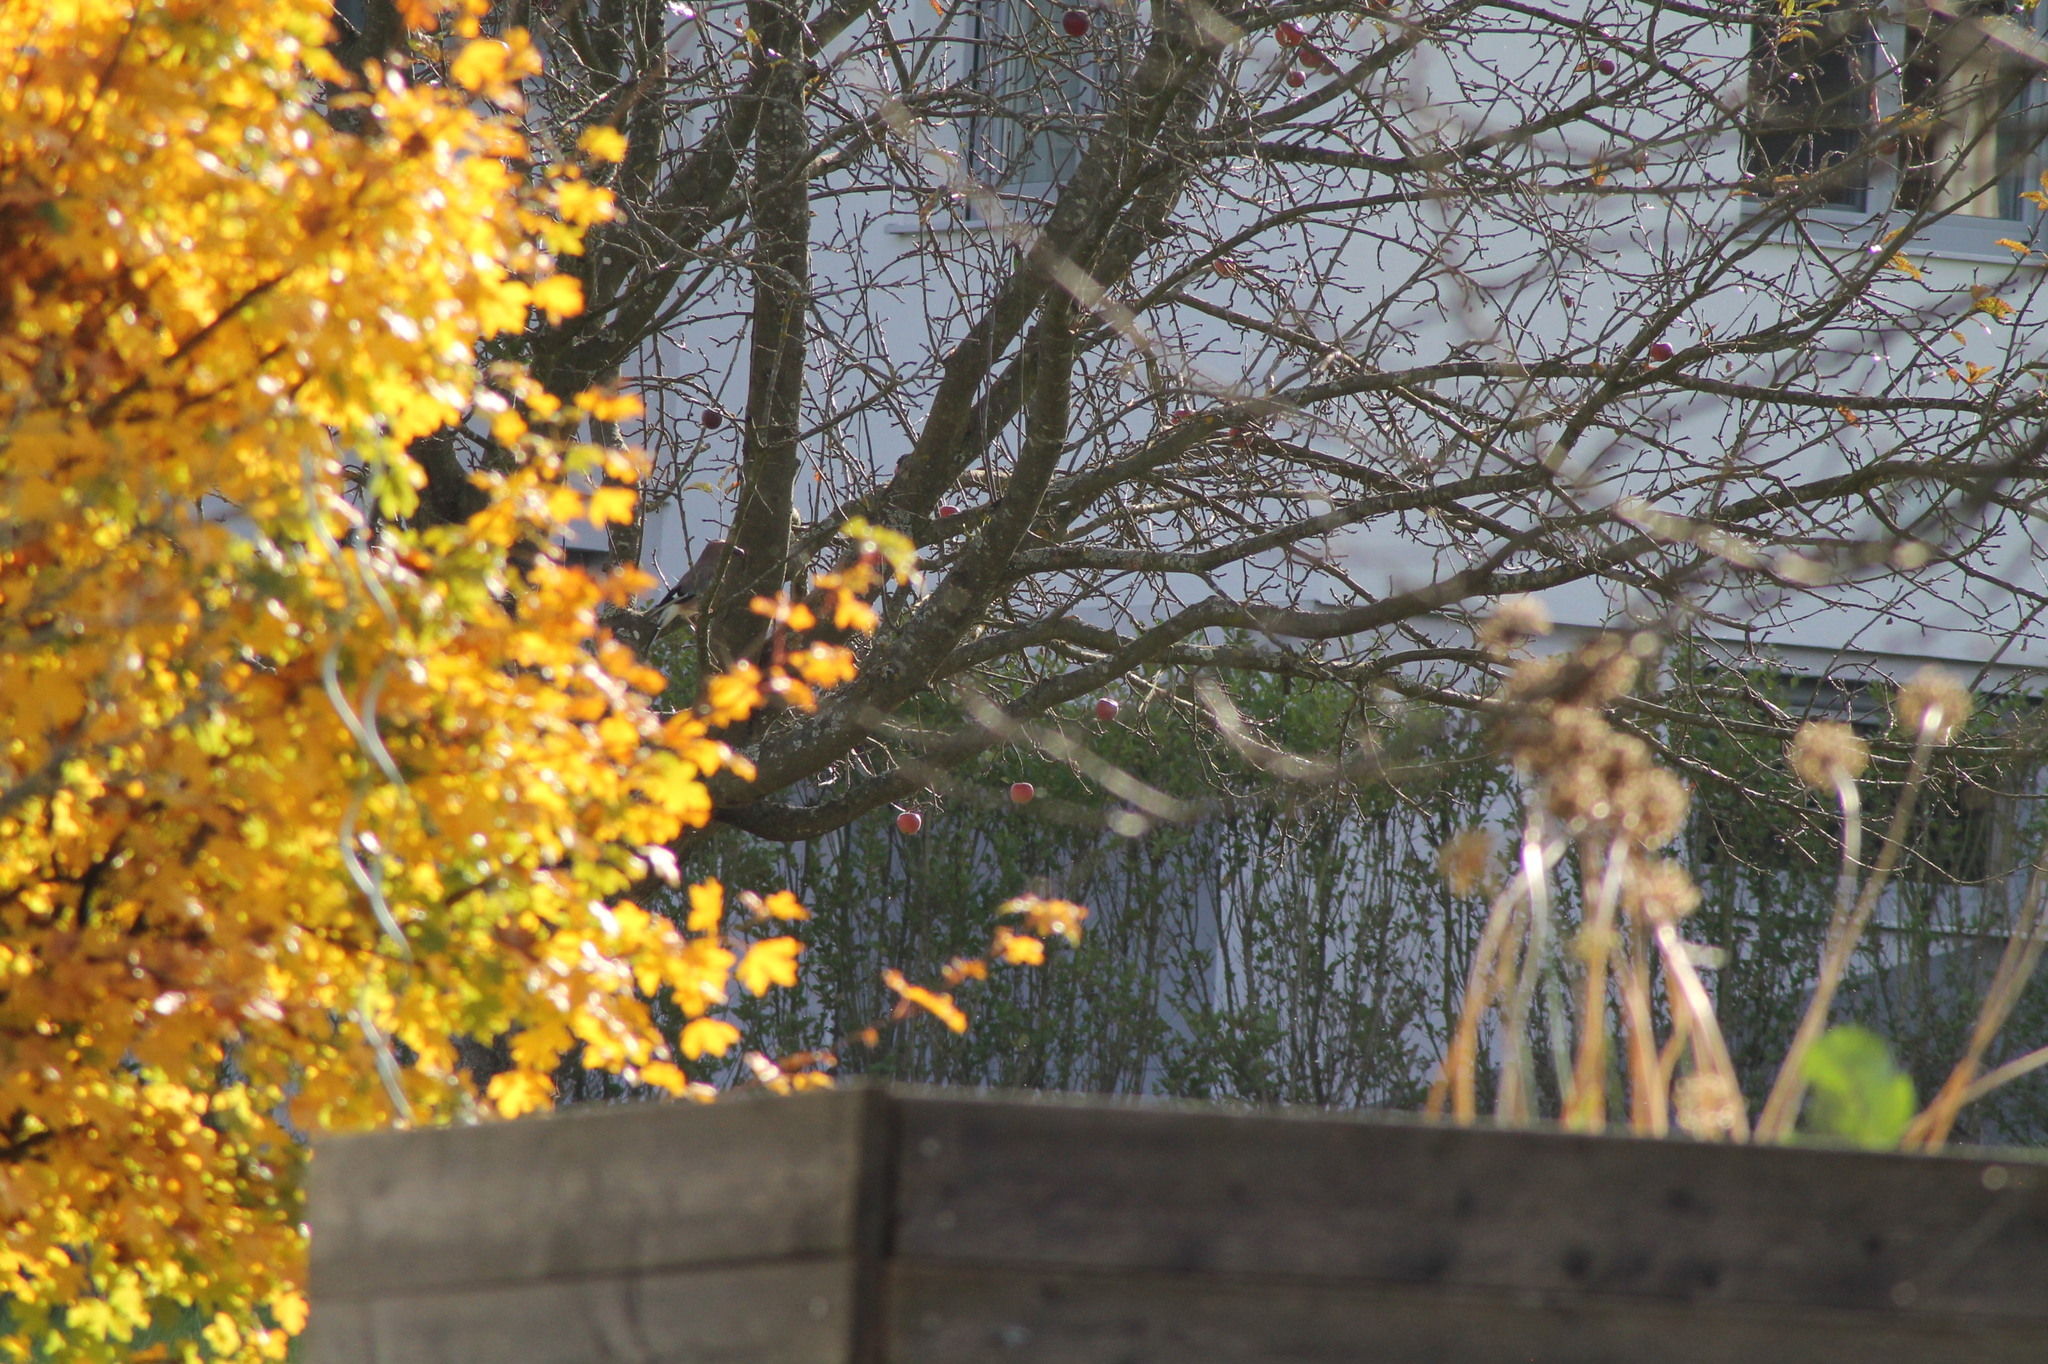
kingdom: Animalia
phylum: Chordata
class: Aves
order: Passeriformes
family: Corvidae
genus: Garrulus
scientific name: Garrulus glandarius
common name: Eurasian jay
